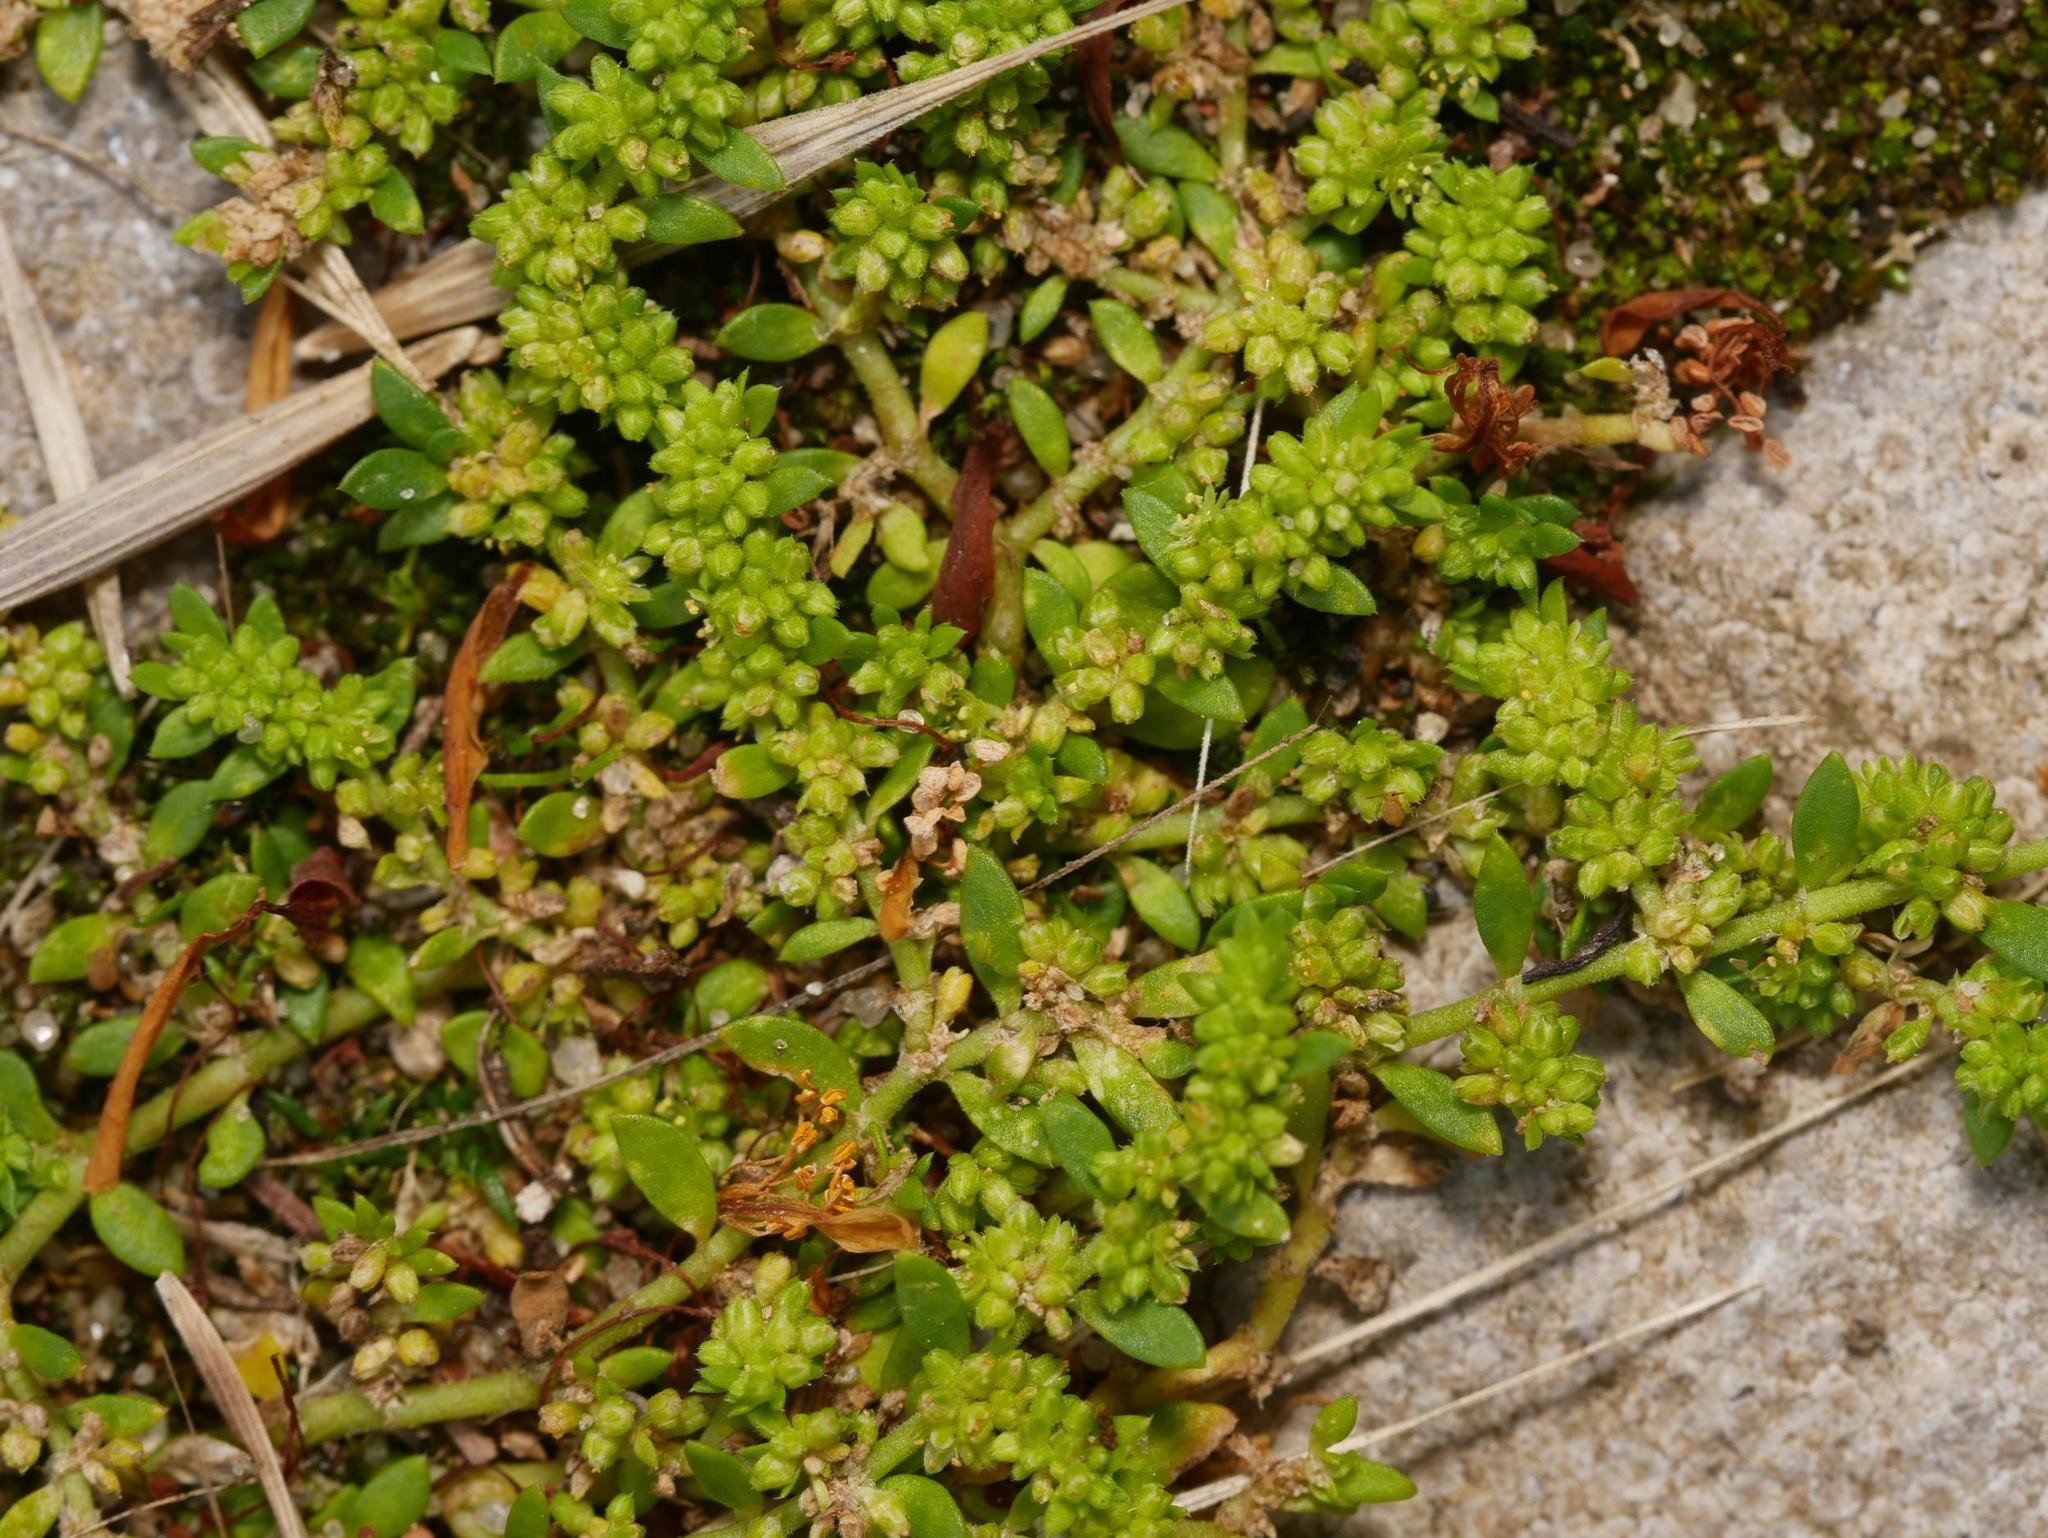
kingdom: Plantae
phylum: Tracheophyta
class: Magnoliopsida
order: Caryophyllales
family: Caryophyllaceae
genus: Herniaria
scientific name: Herniaria glabra
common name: Smooth rupturewort
